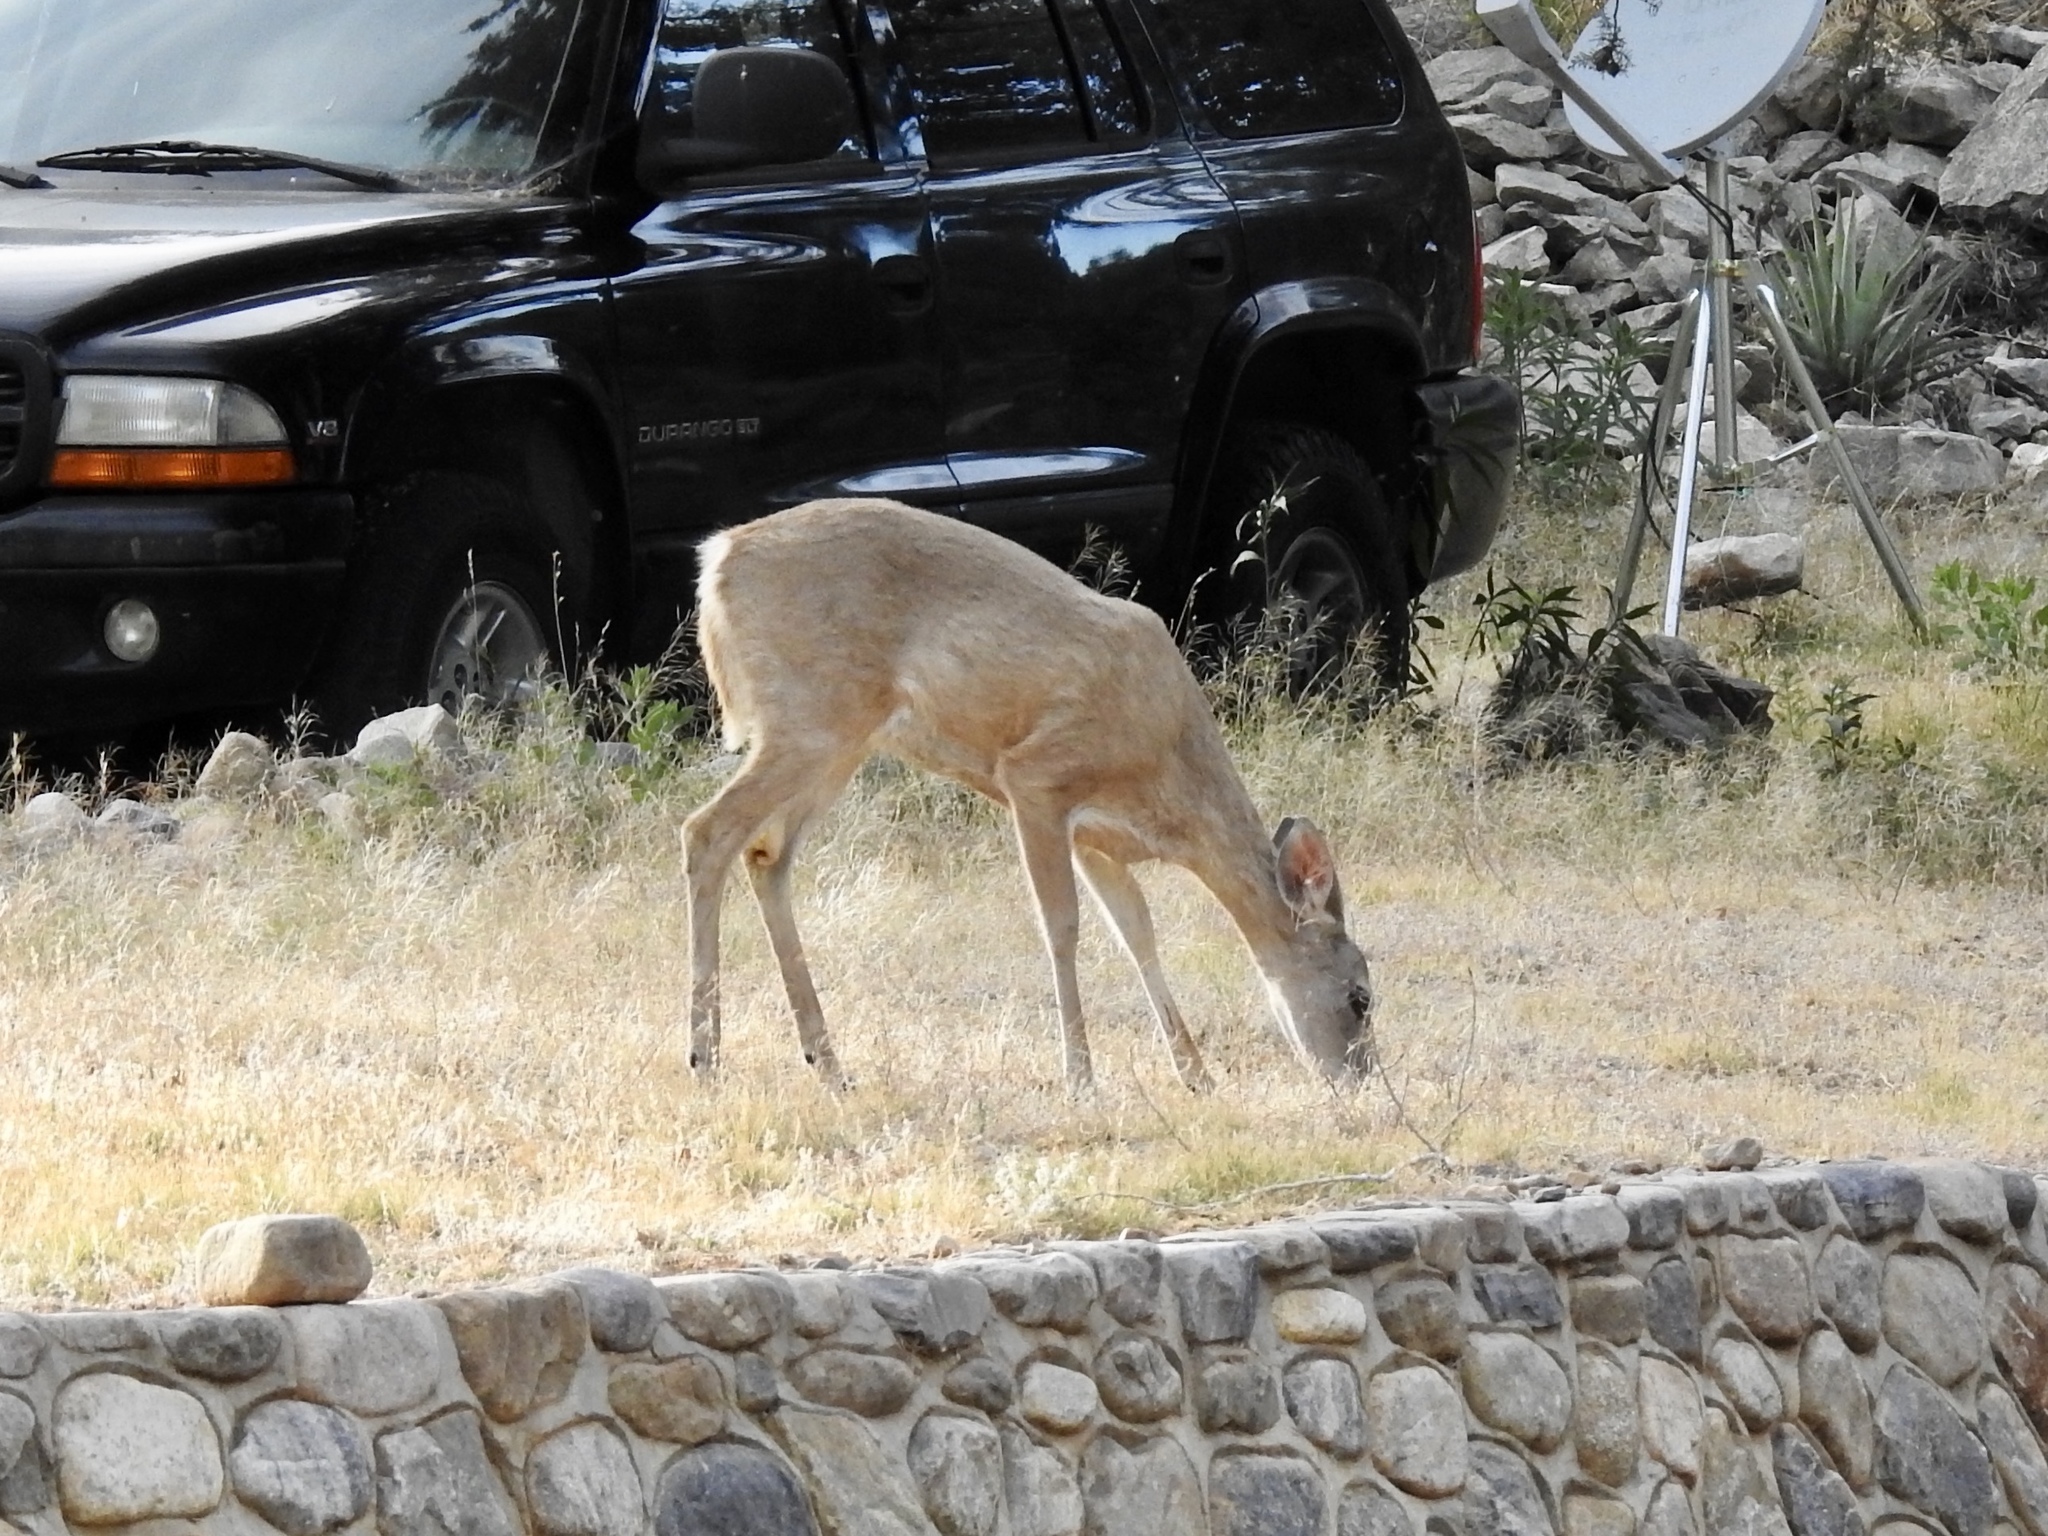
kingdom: Animalia
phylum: Chordata
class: Mammalia
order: Artiodactyla
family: Cervidae
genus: Odocoileus
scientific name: Odocoileus virginianus
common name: White-tailed deer
